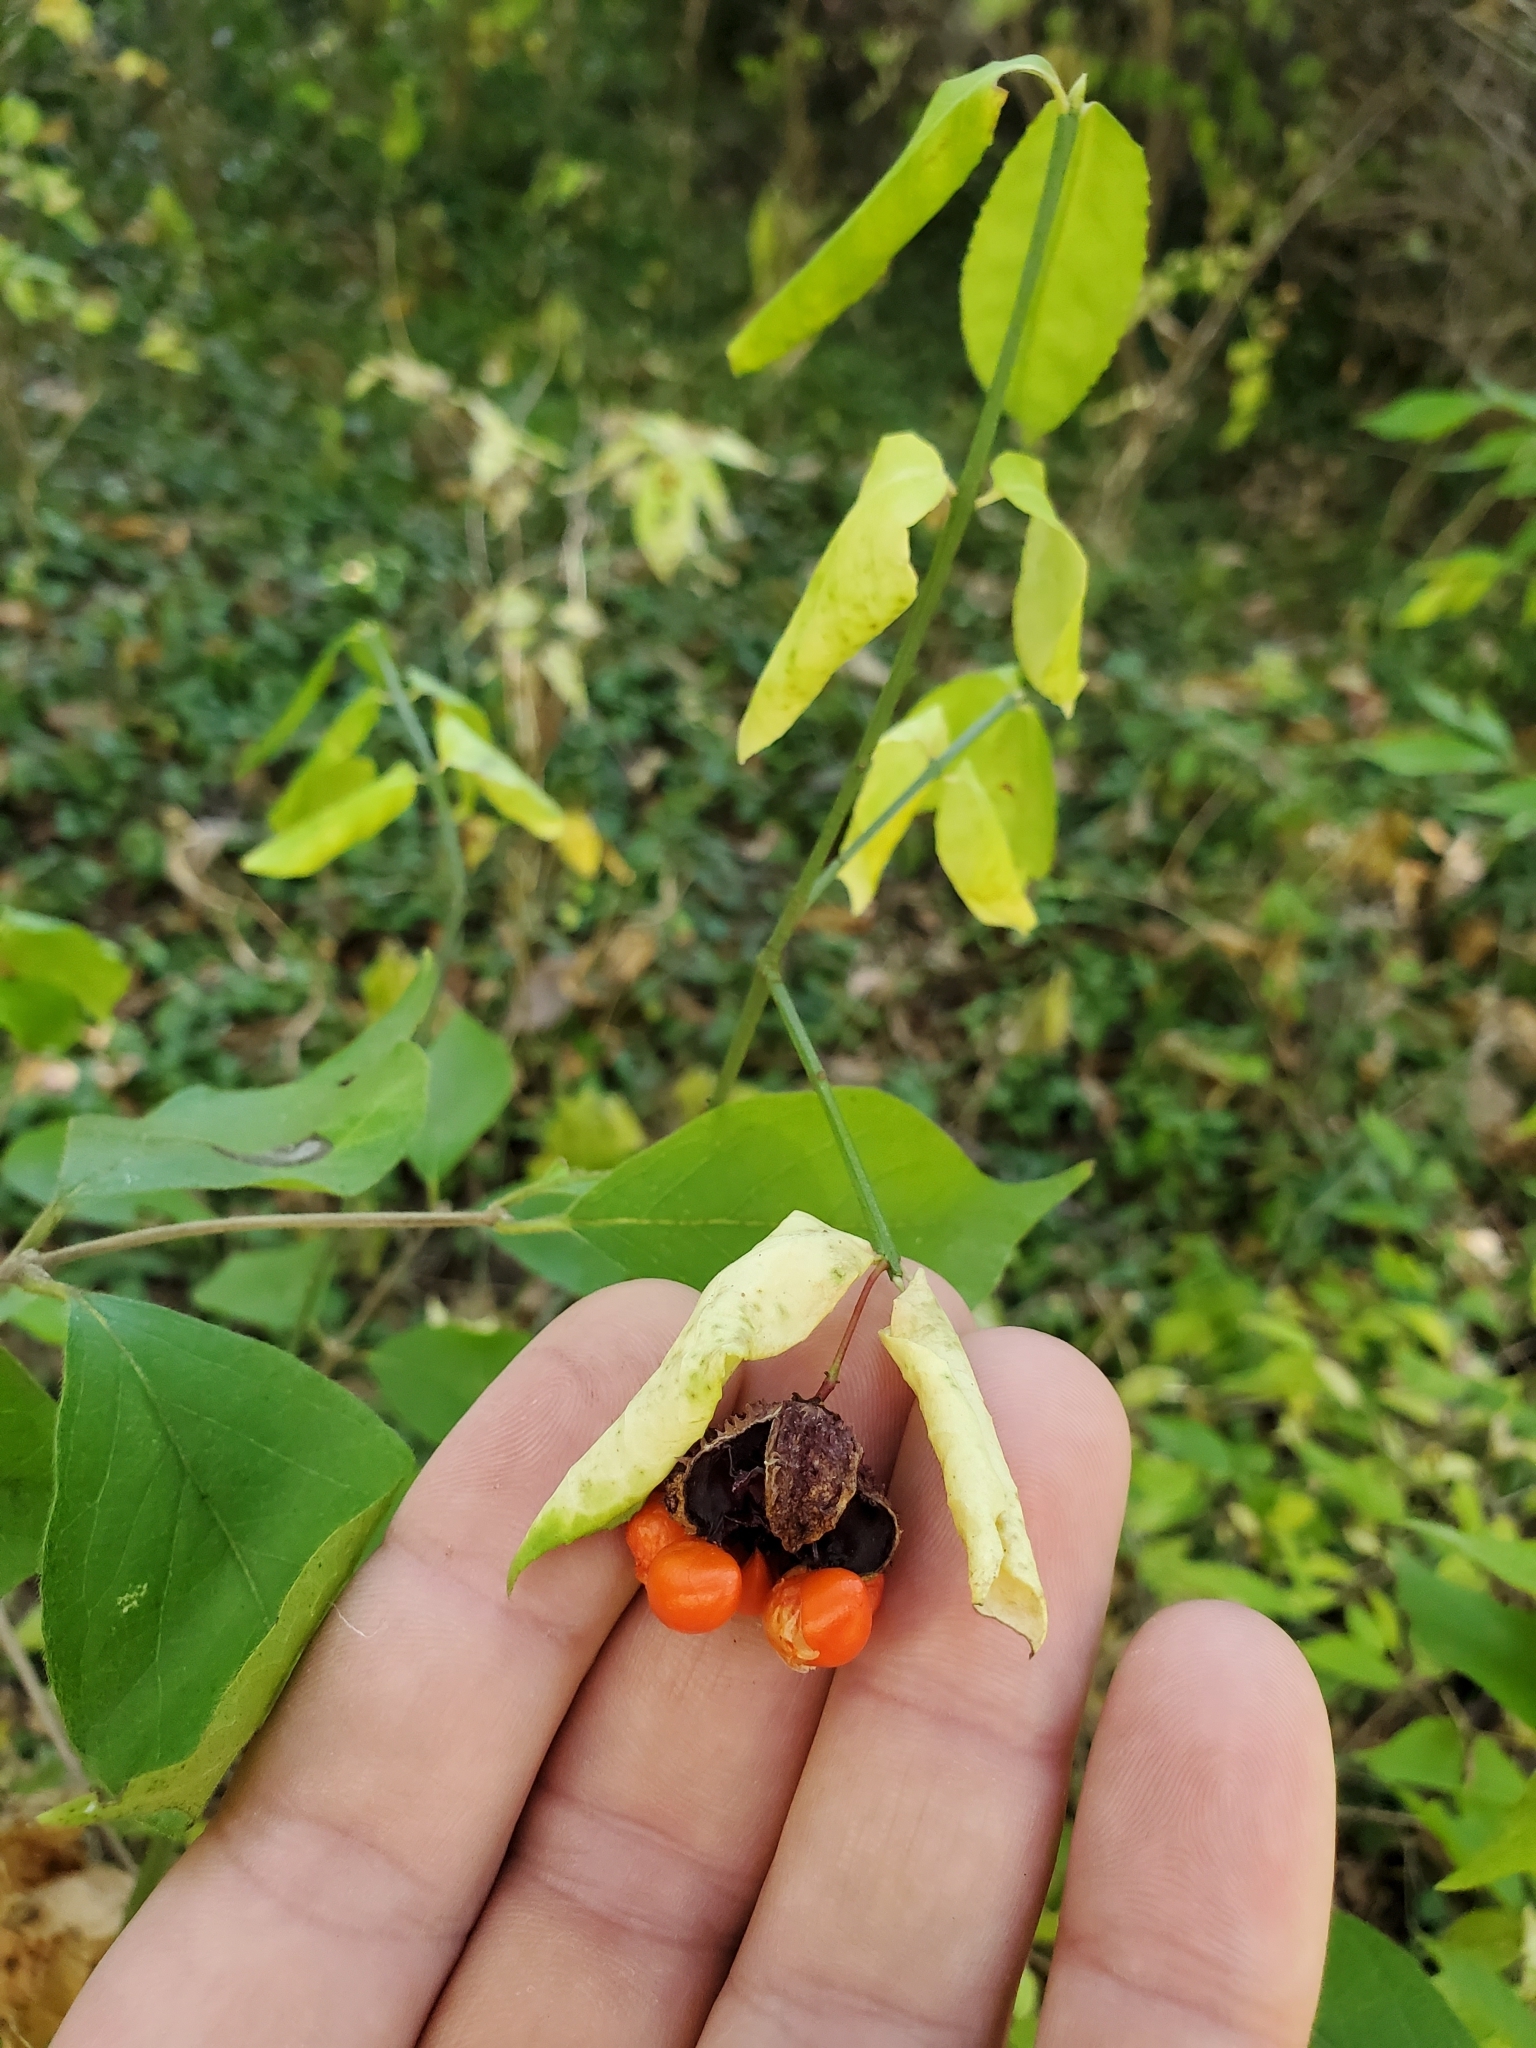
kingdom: Plantae
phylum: Tracheophyta
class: Magnoliopsida
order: Celastrales
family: Celastraceae
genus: Euonymus
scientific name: Euonymus americanus
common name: Bursting-heart
